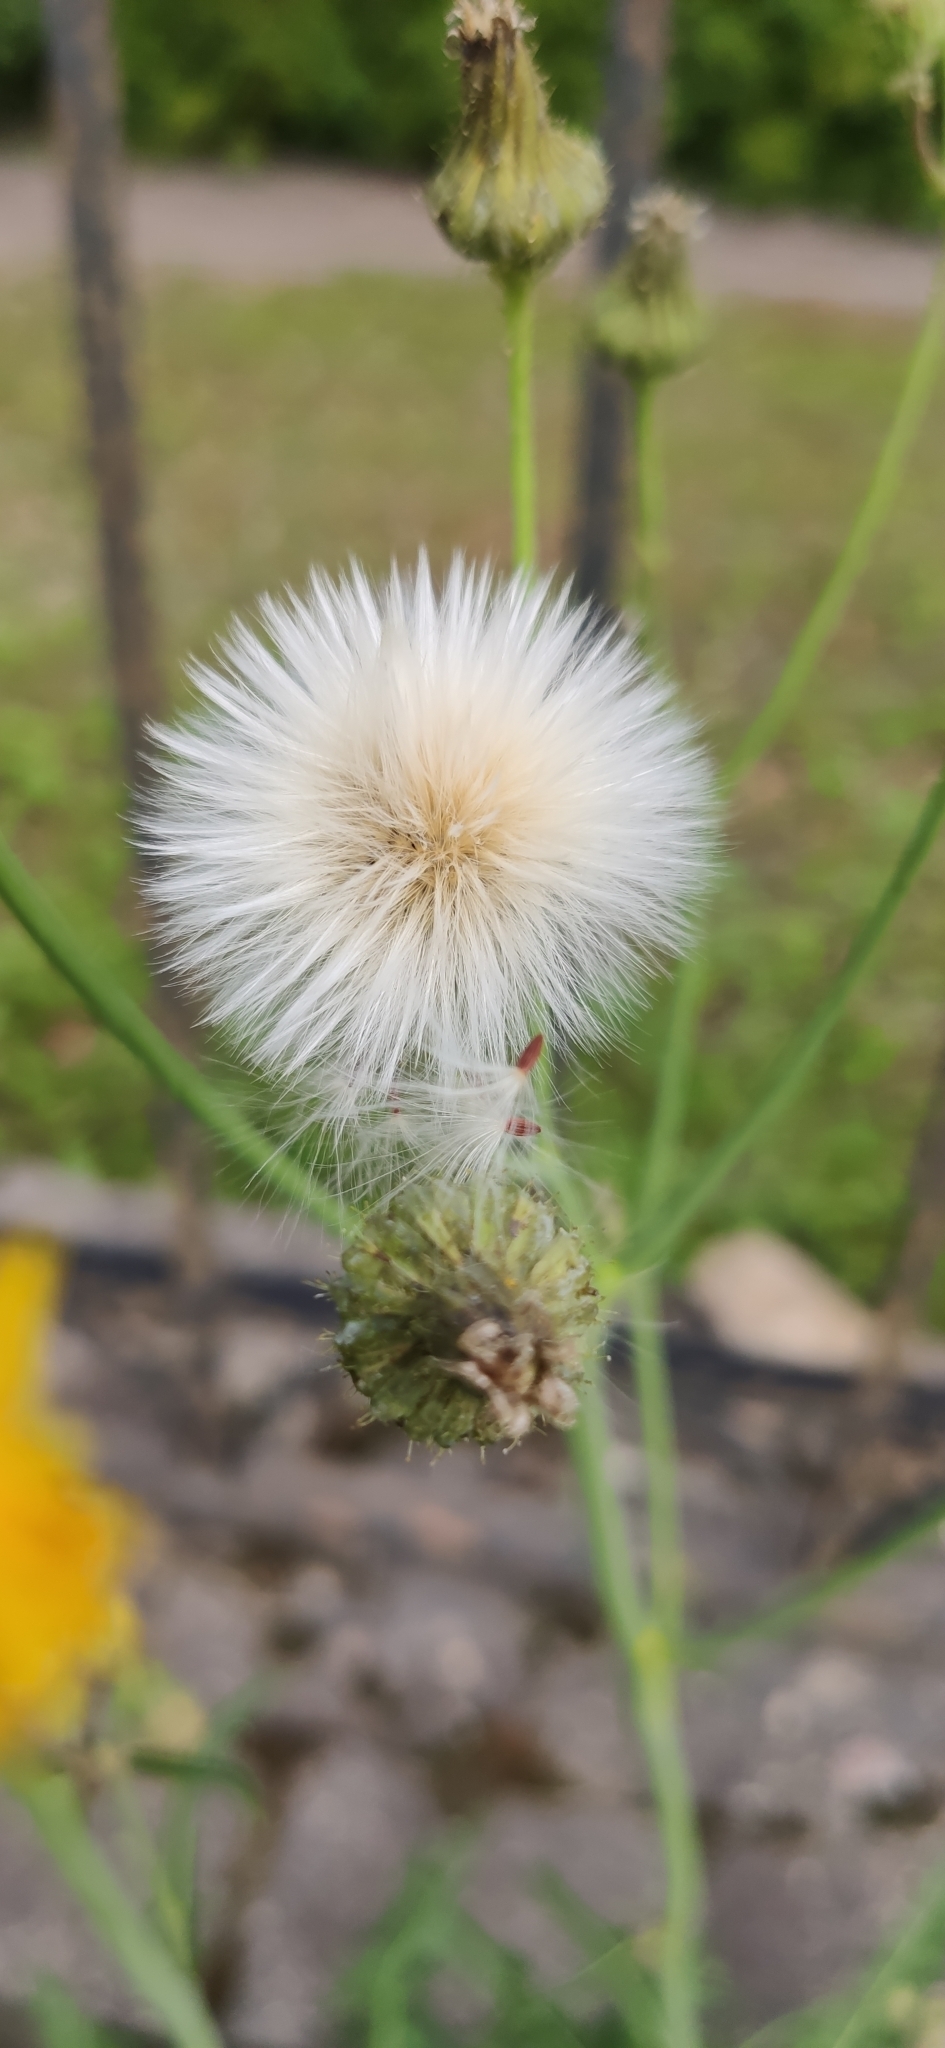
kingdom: Plantae
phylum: Tracheophyta
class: Magnoliopsida
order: Asterales
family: Asteraceae
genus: Sonchus
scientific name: Sonchus arvensis
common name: Perennial sow-thistle
